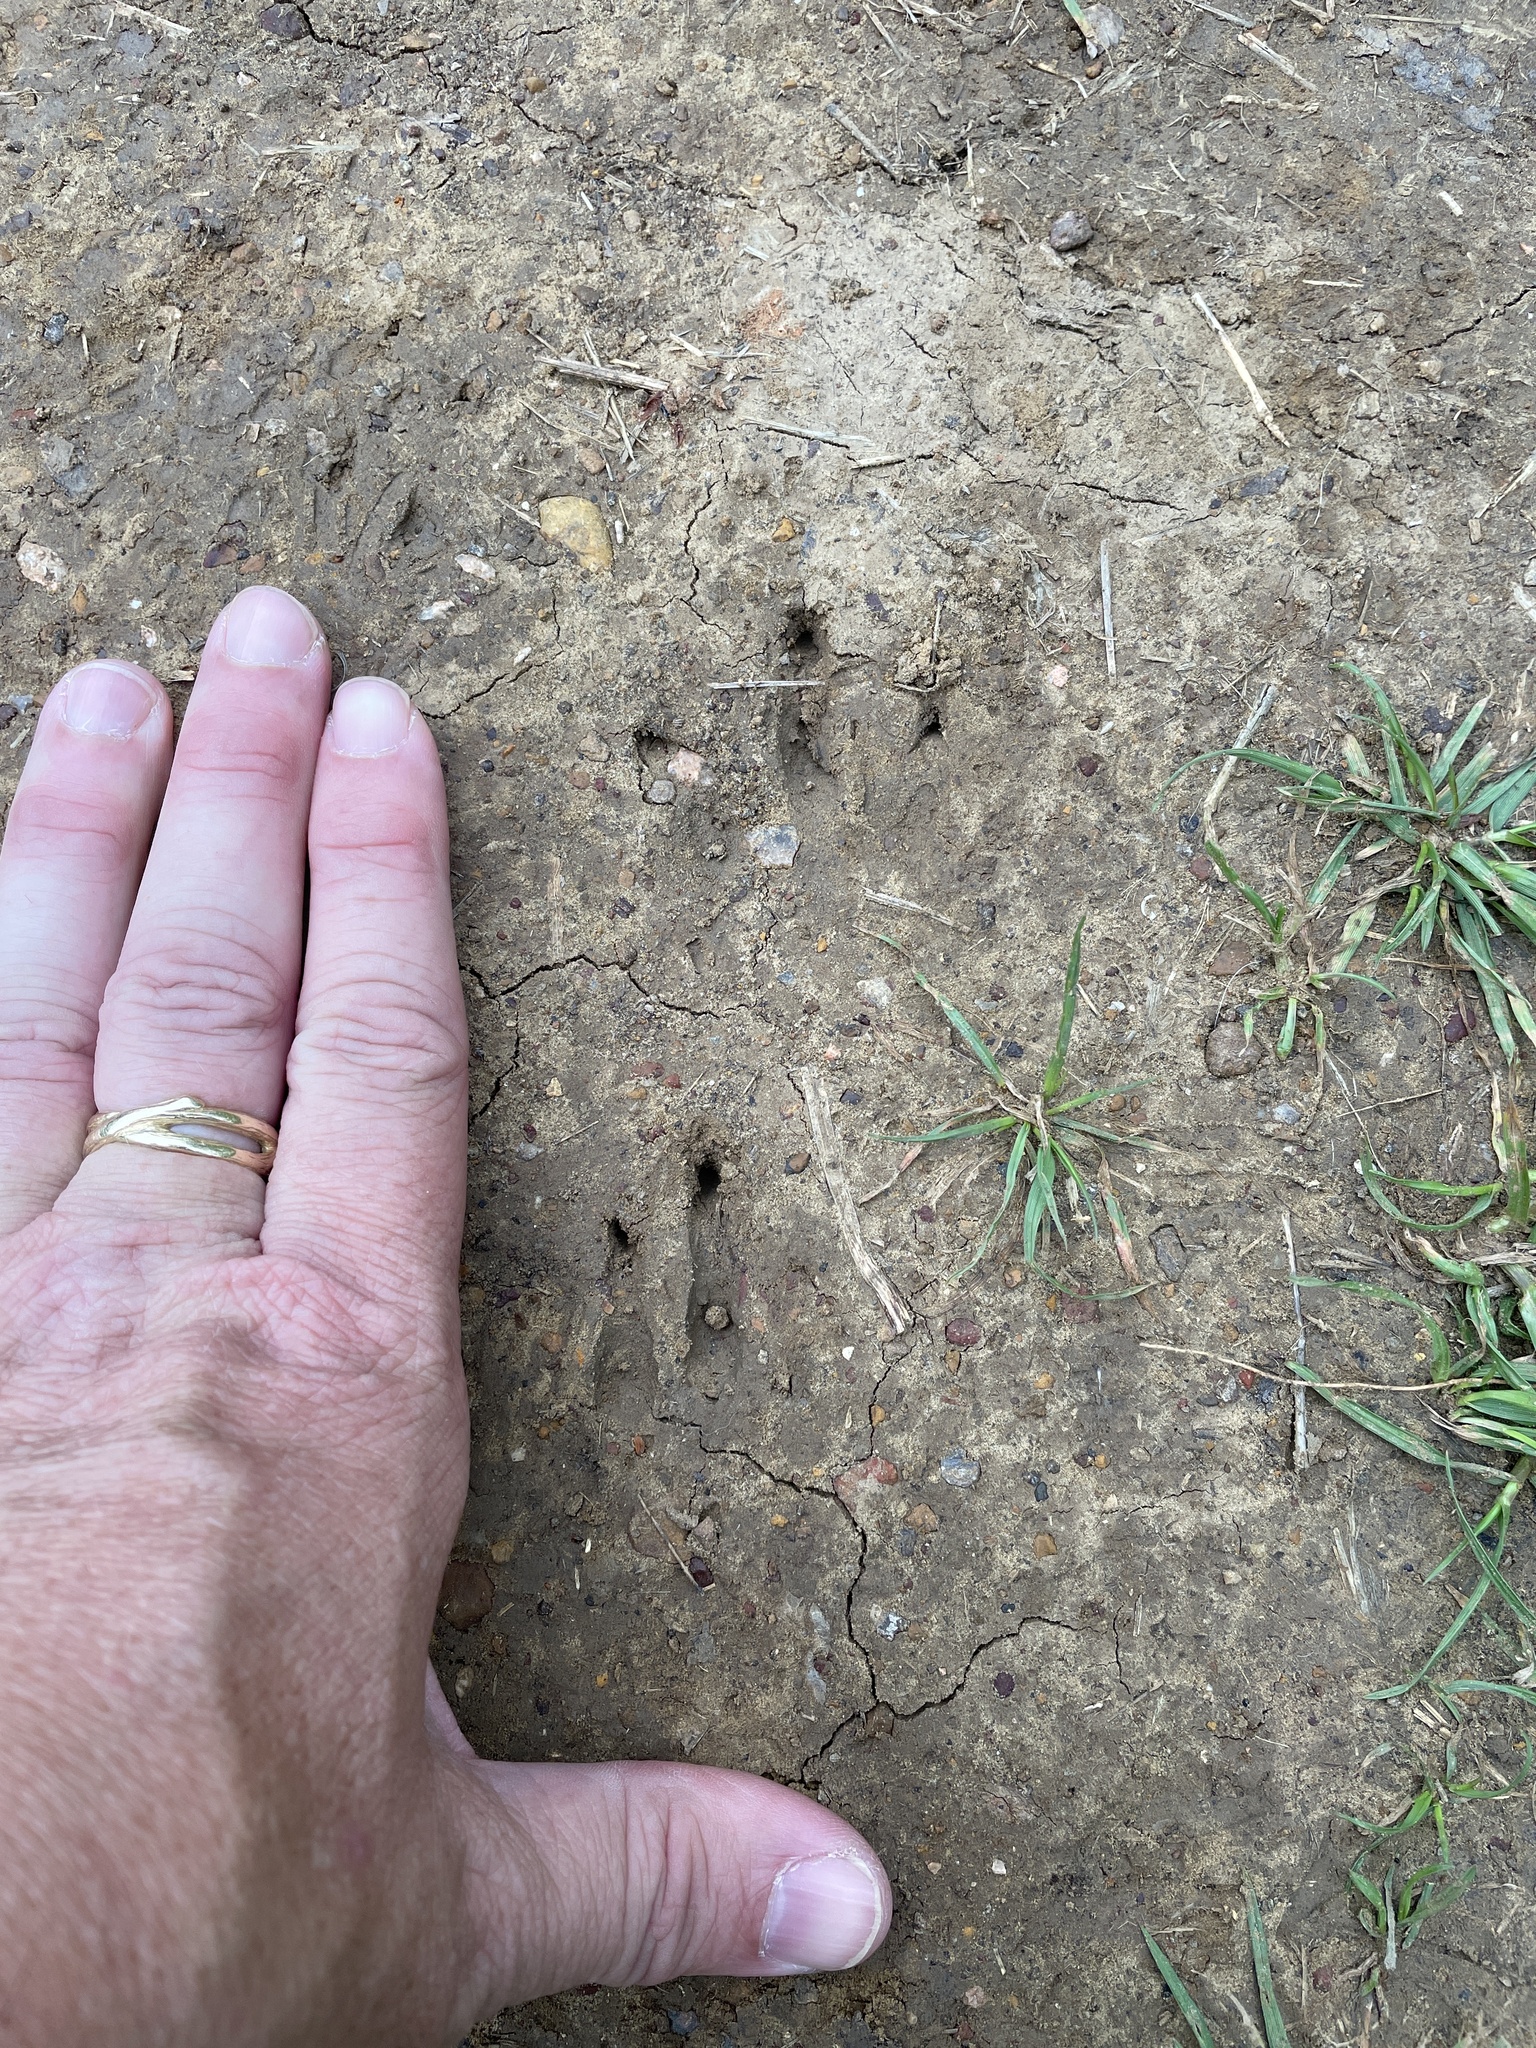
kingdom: Animalia
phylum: Chordata
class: Mammalia
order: Cingulata
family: Dasypodidae
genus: Dasypus
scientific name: Dasypus novemcinctus
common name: Nine-banded armadillo
